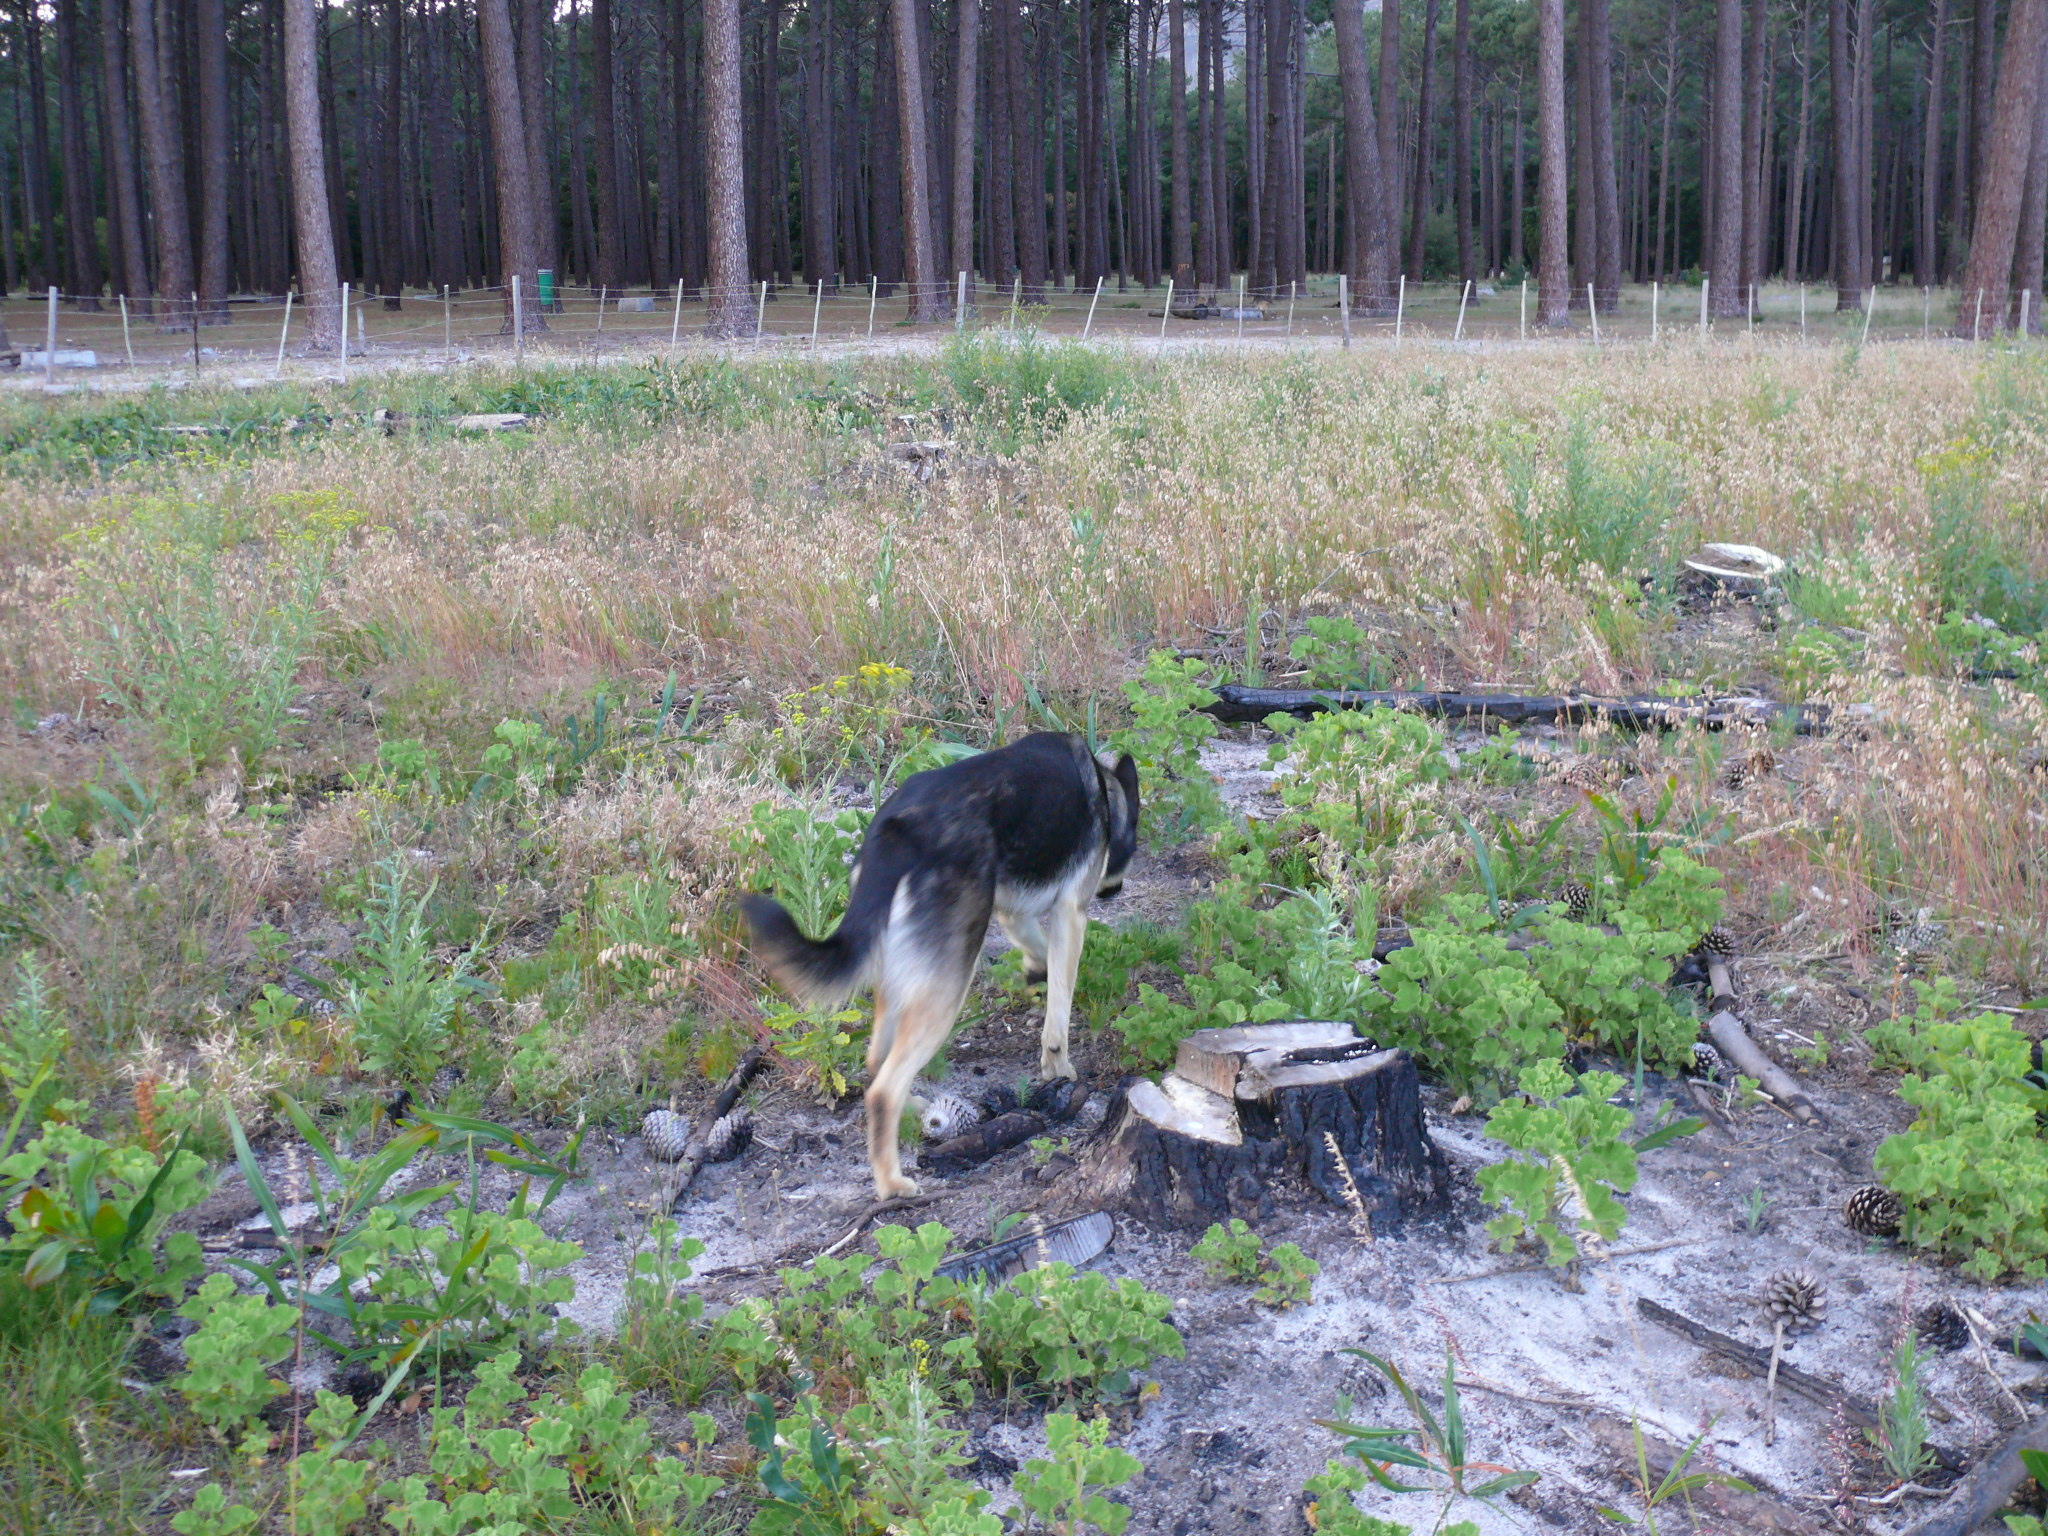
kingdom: Plantae
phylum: Tracheophyta
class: Magnoliopsida
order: Geraniales
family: Geraniaceae
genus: Pelargonium
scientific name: Pelargonium cucullatum
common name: Tree pelargonium
